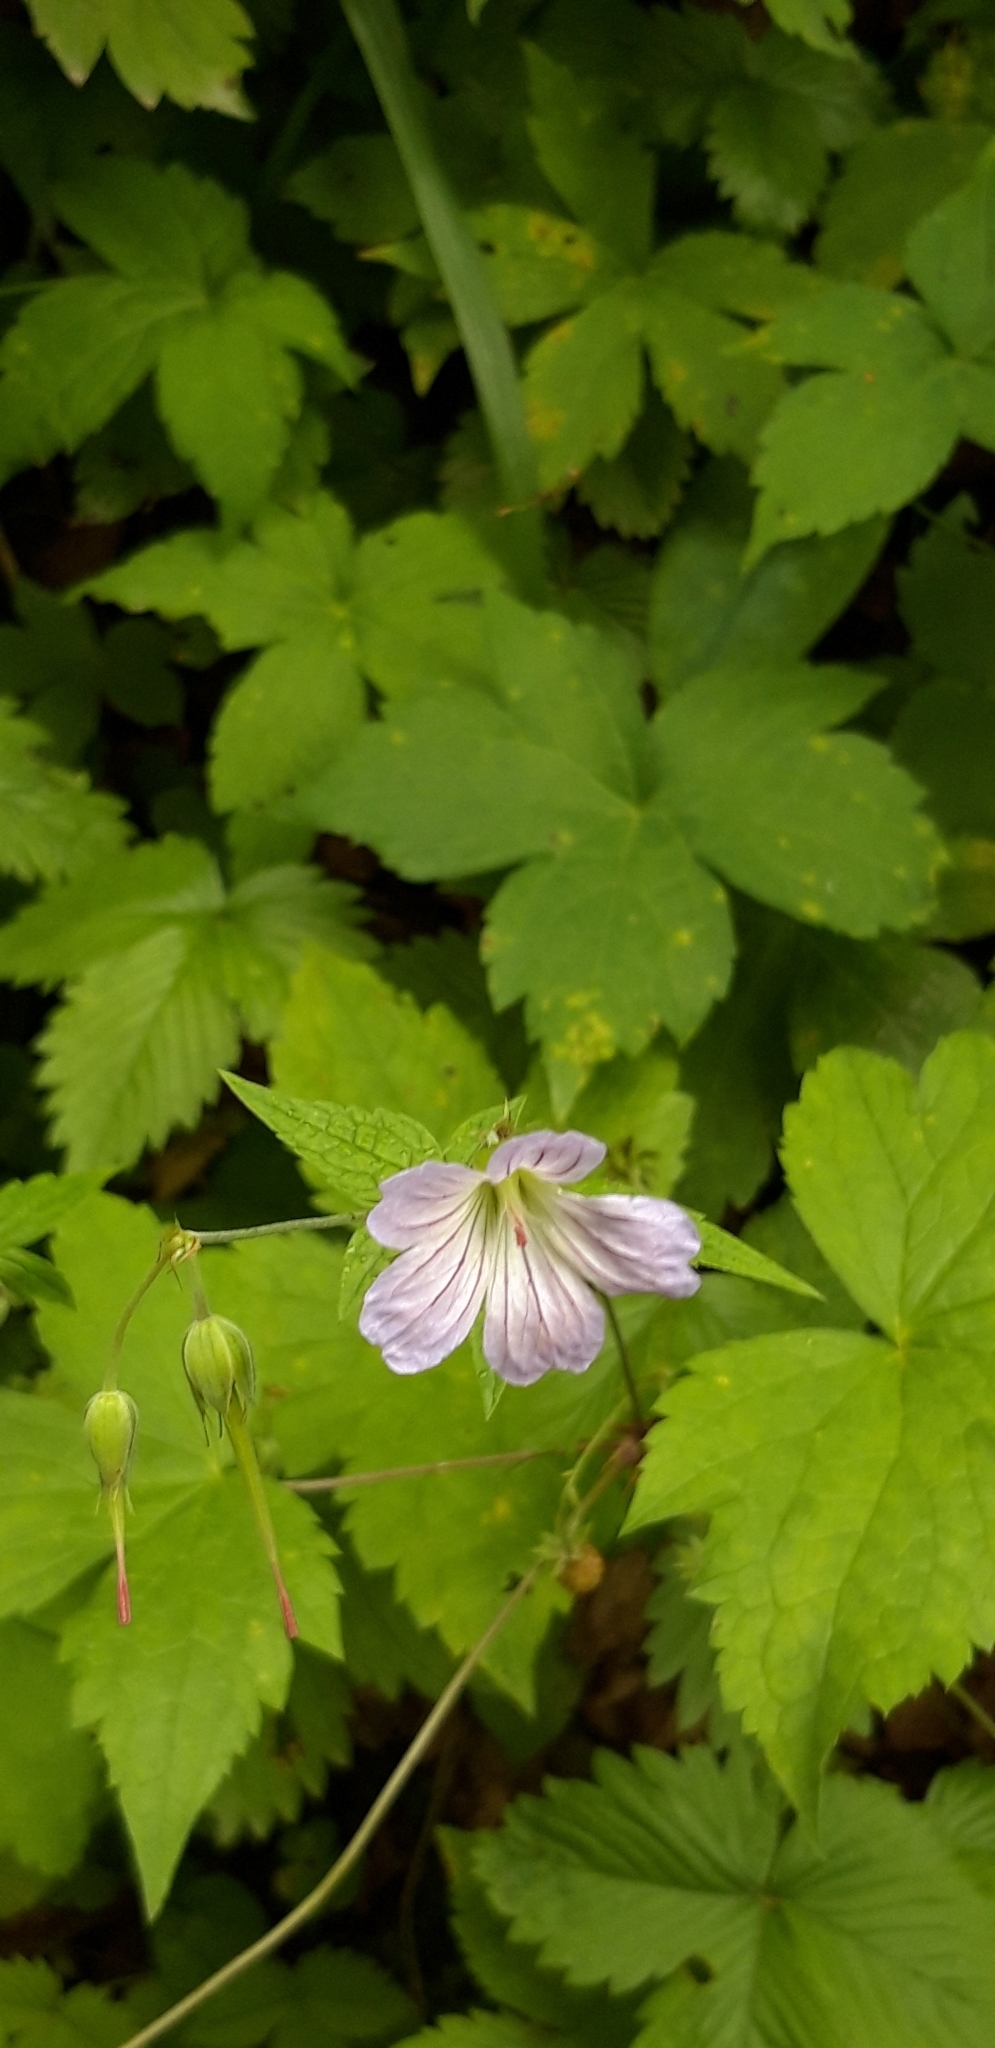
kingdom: Plantae
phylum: Tracheophyta
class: Magnoliopsida
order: Geraniales
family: Geraniaceae
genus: Geranium
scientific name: Geranium nodosum
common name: Knotted crane's-bill
